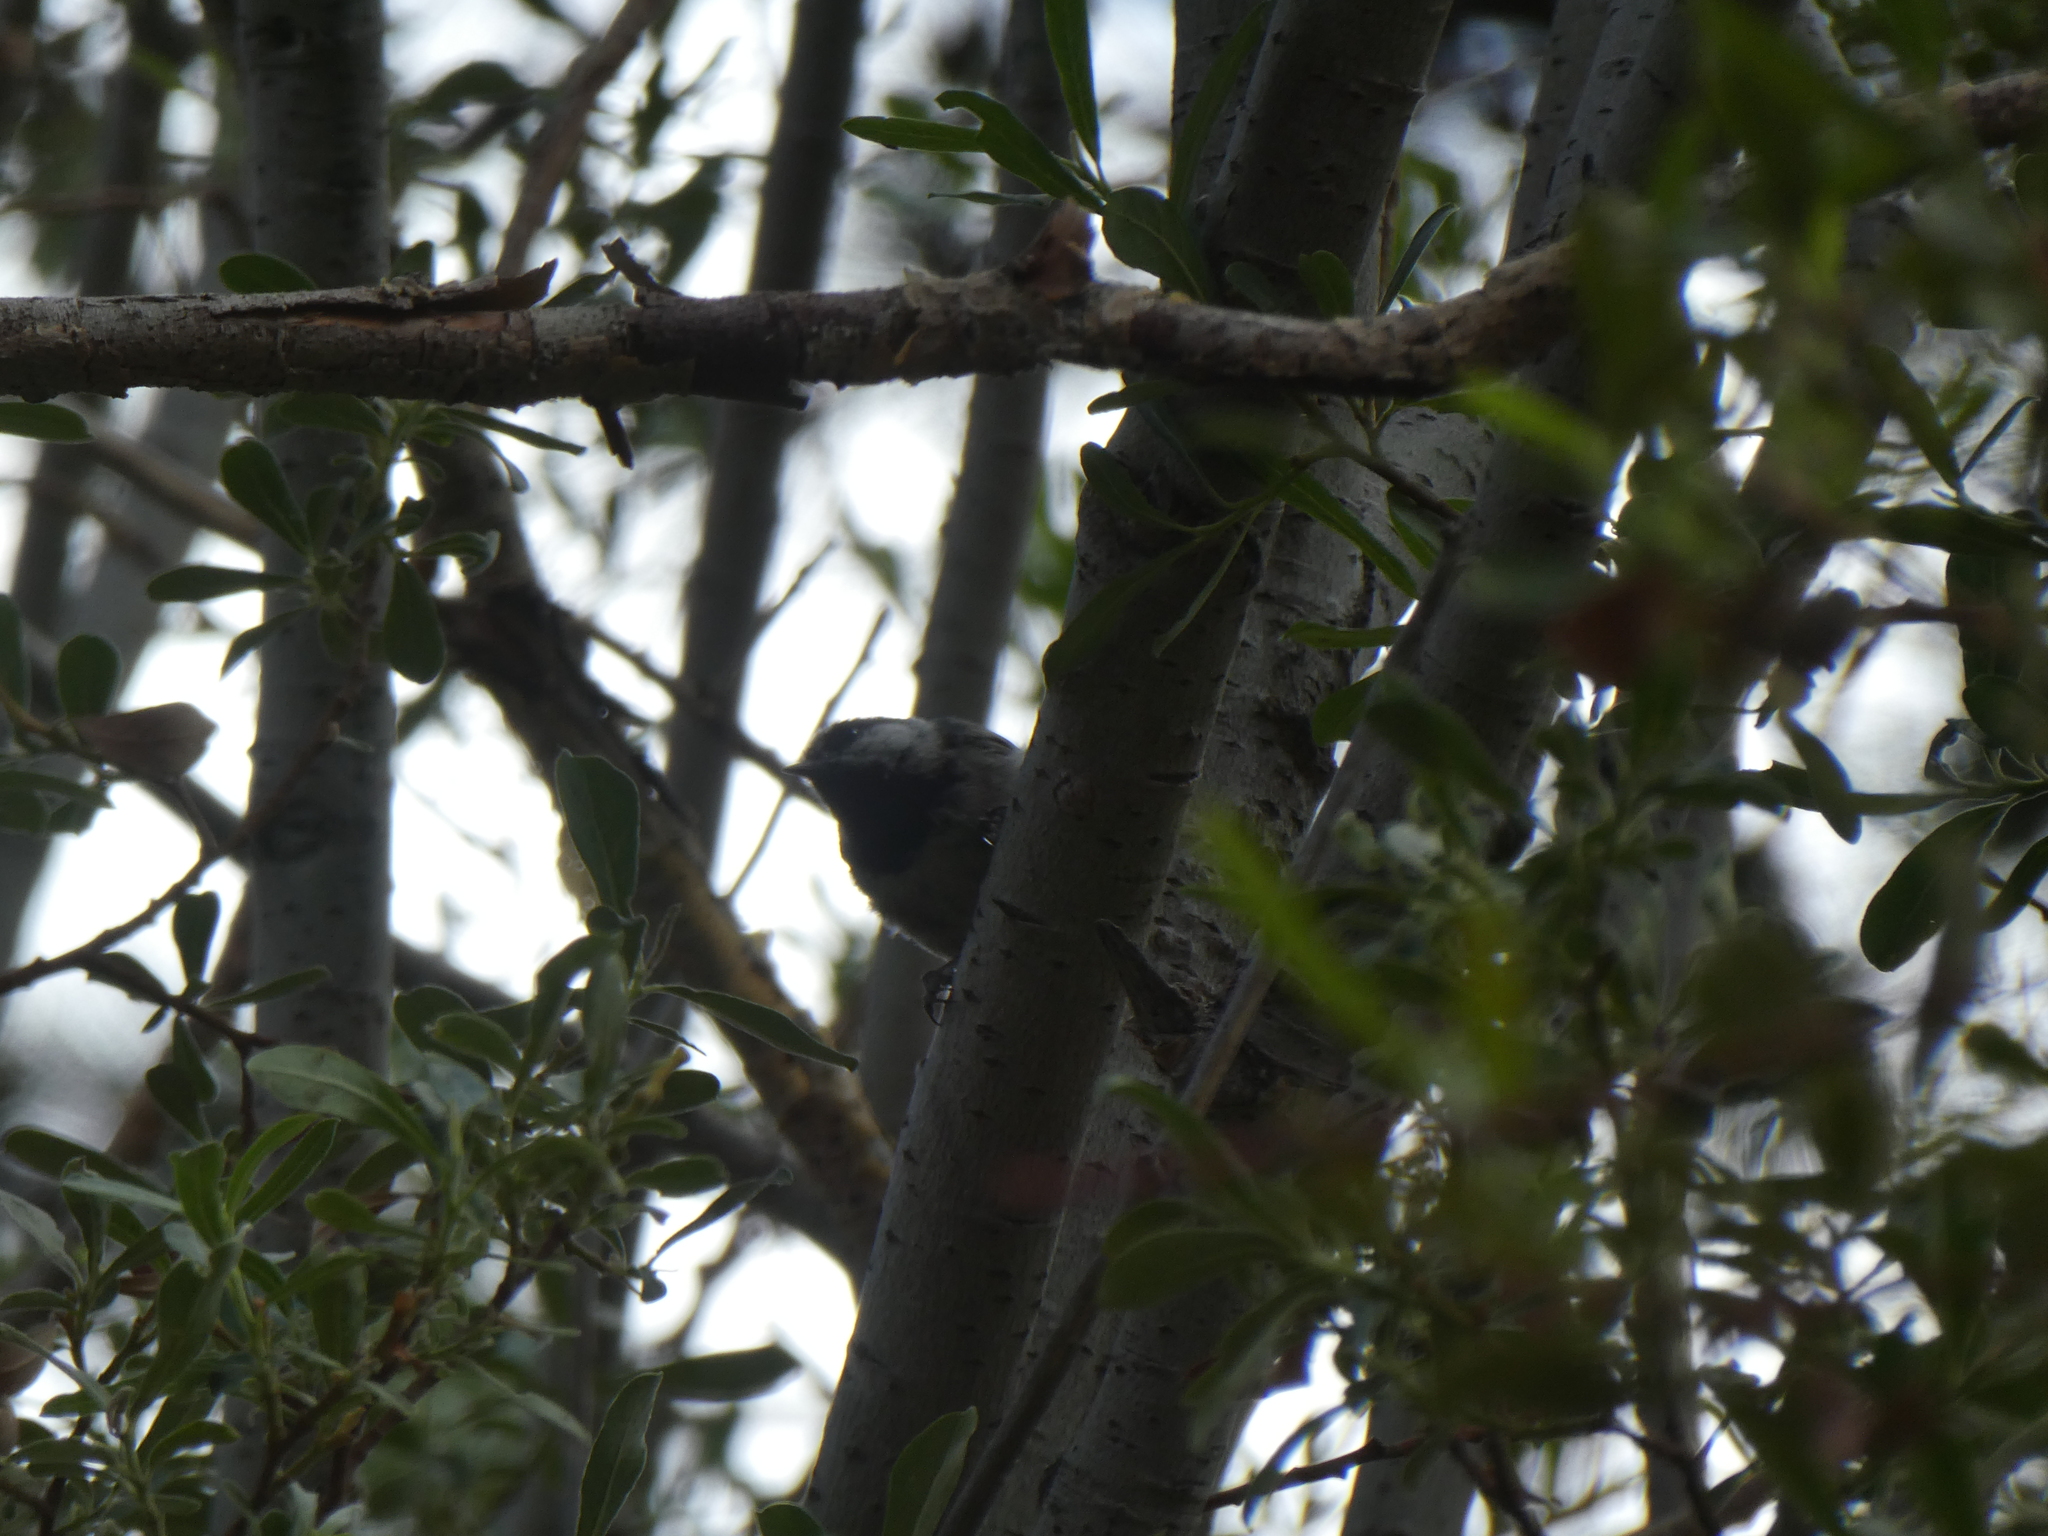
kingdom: Animalia
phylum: Chordata
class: Aves
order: Passeriformes
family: Paridae
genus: Poecile
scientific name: Poecile gambeli
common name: Mountain chickadee
